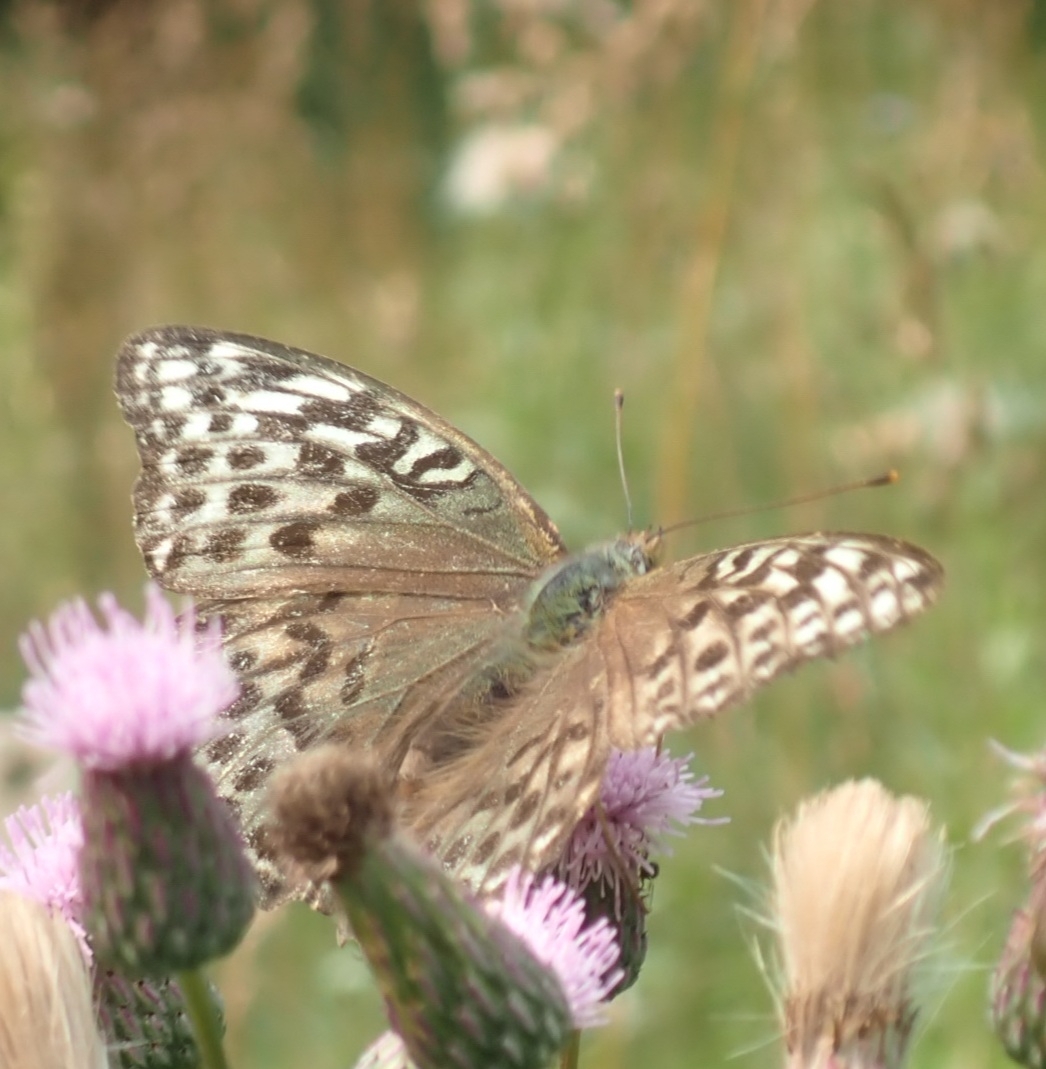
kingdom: Animalia
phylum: Arthropoda
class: Insecta
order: Lepidoptera
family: Nymphalidae
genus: Argynnis
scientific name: Argynnis paphia
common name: Silver-washed fritillary
